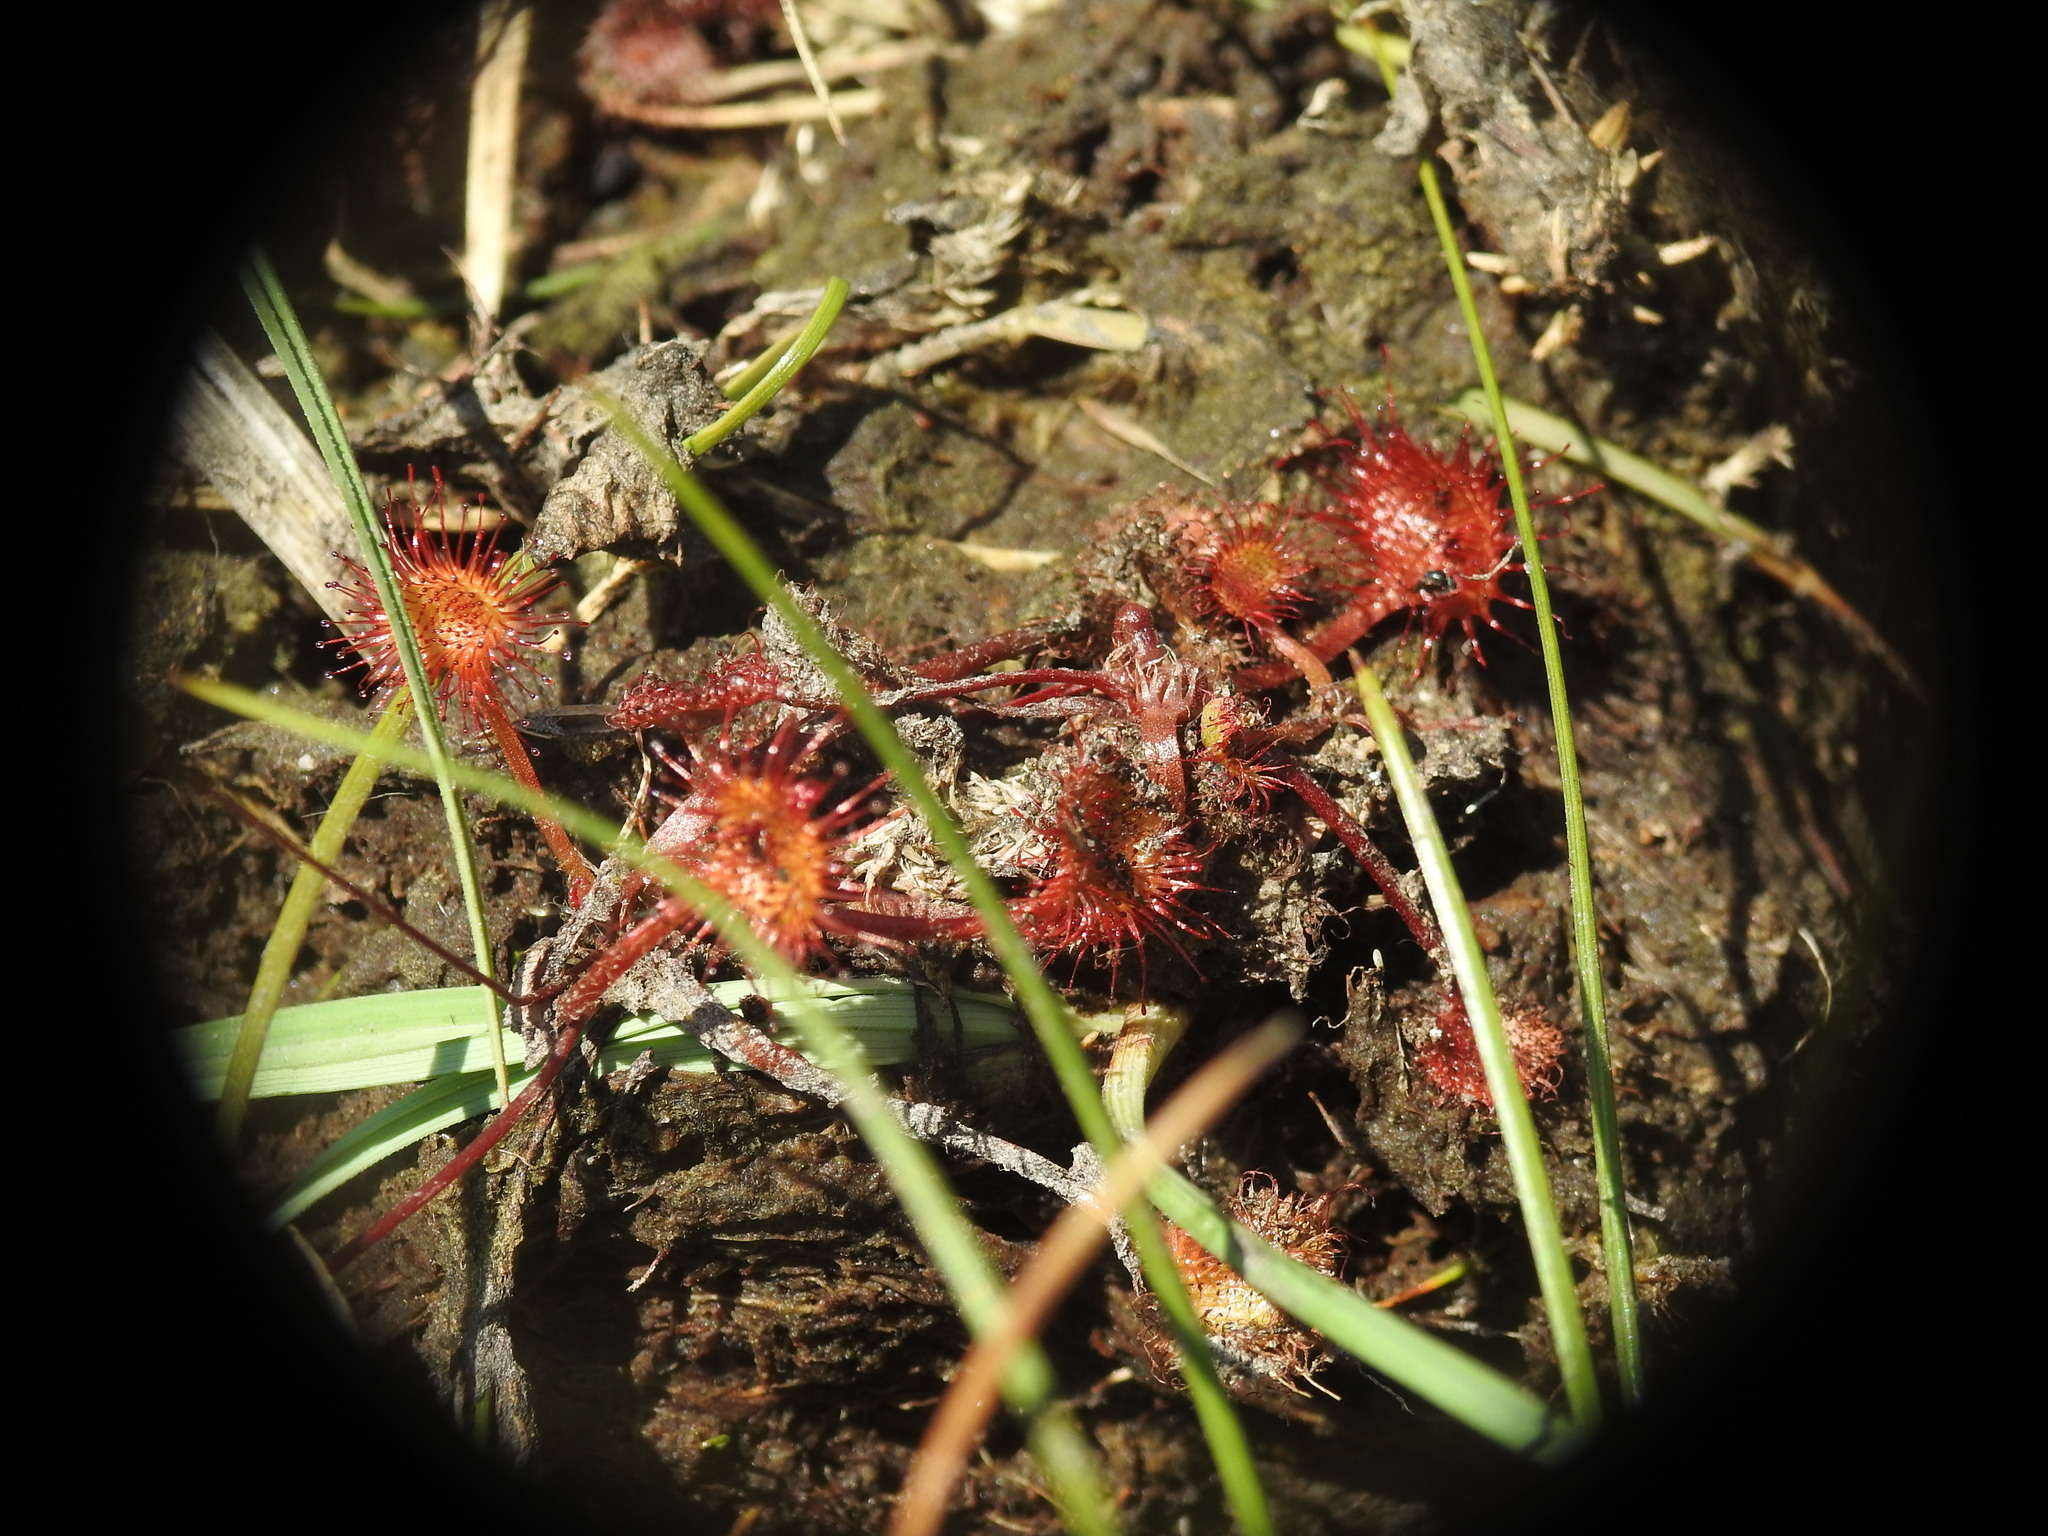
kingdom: Plantae
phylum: Tracheophyta
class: Magnoliopsida
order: Caryophyllales
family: Droseraceae
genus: Drosera
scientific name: Drosera rotundifolia
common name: Round-leaved sundew
